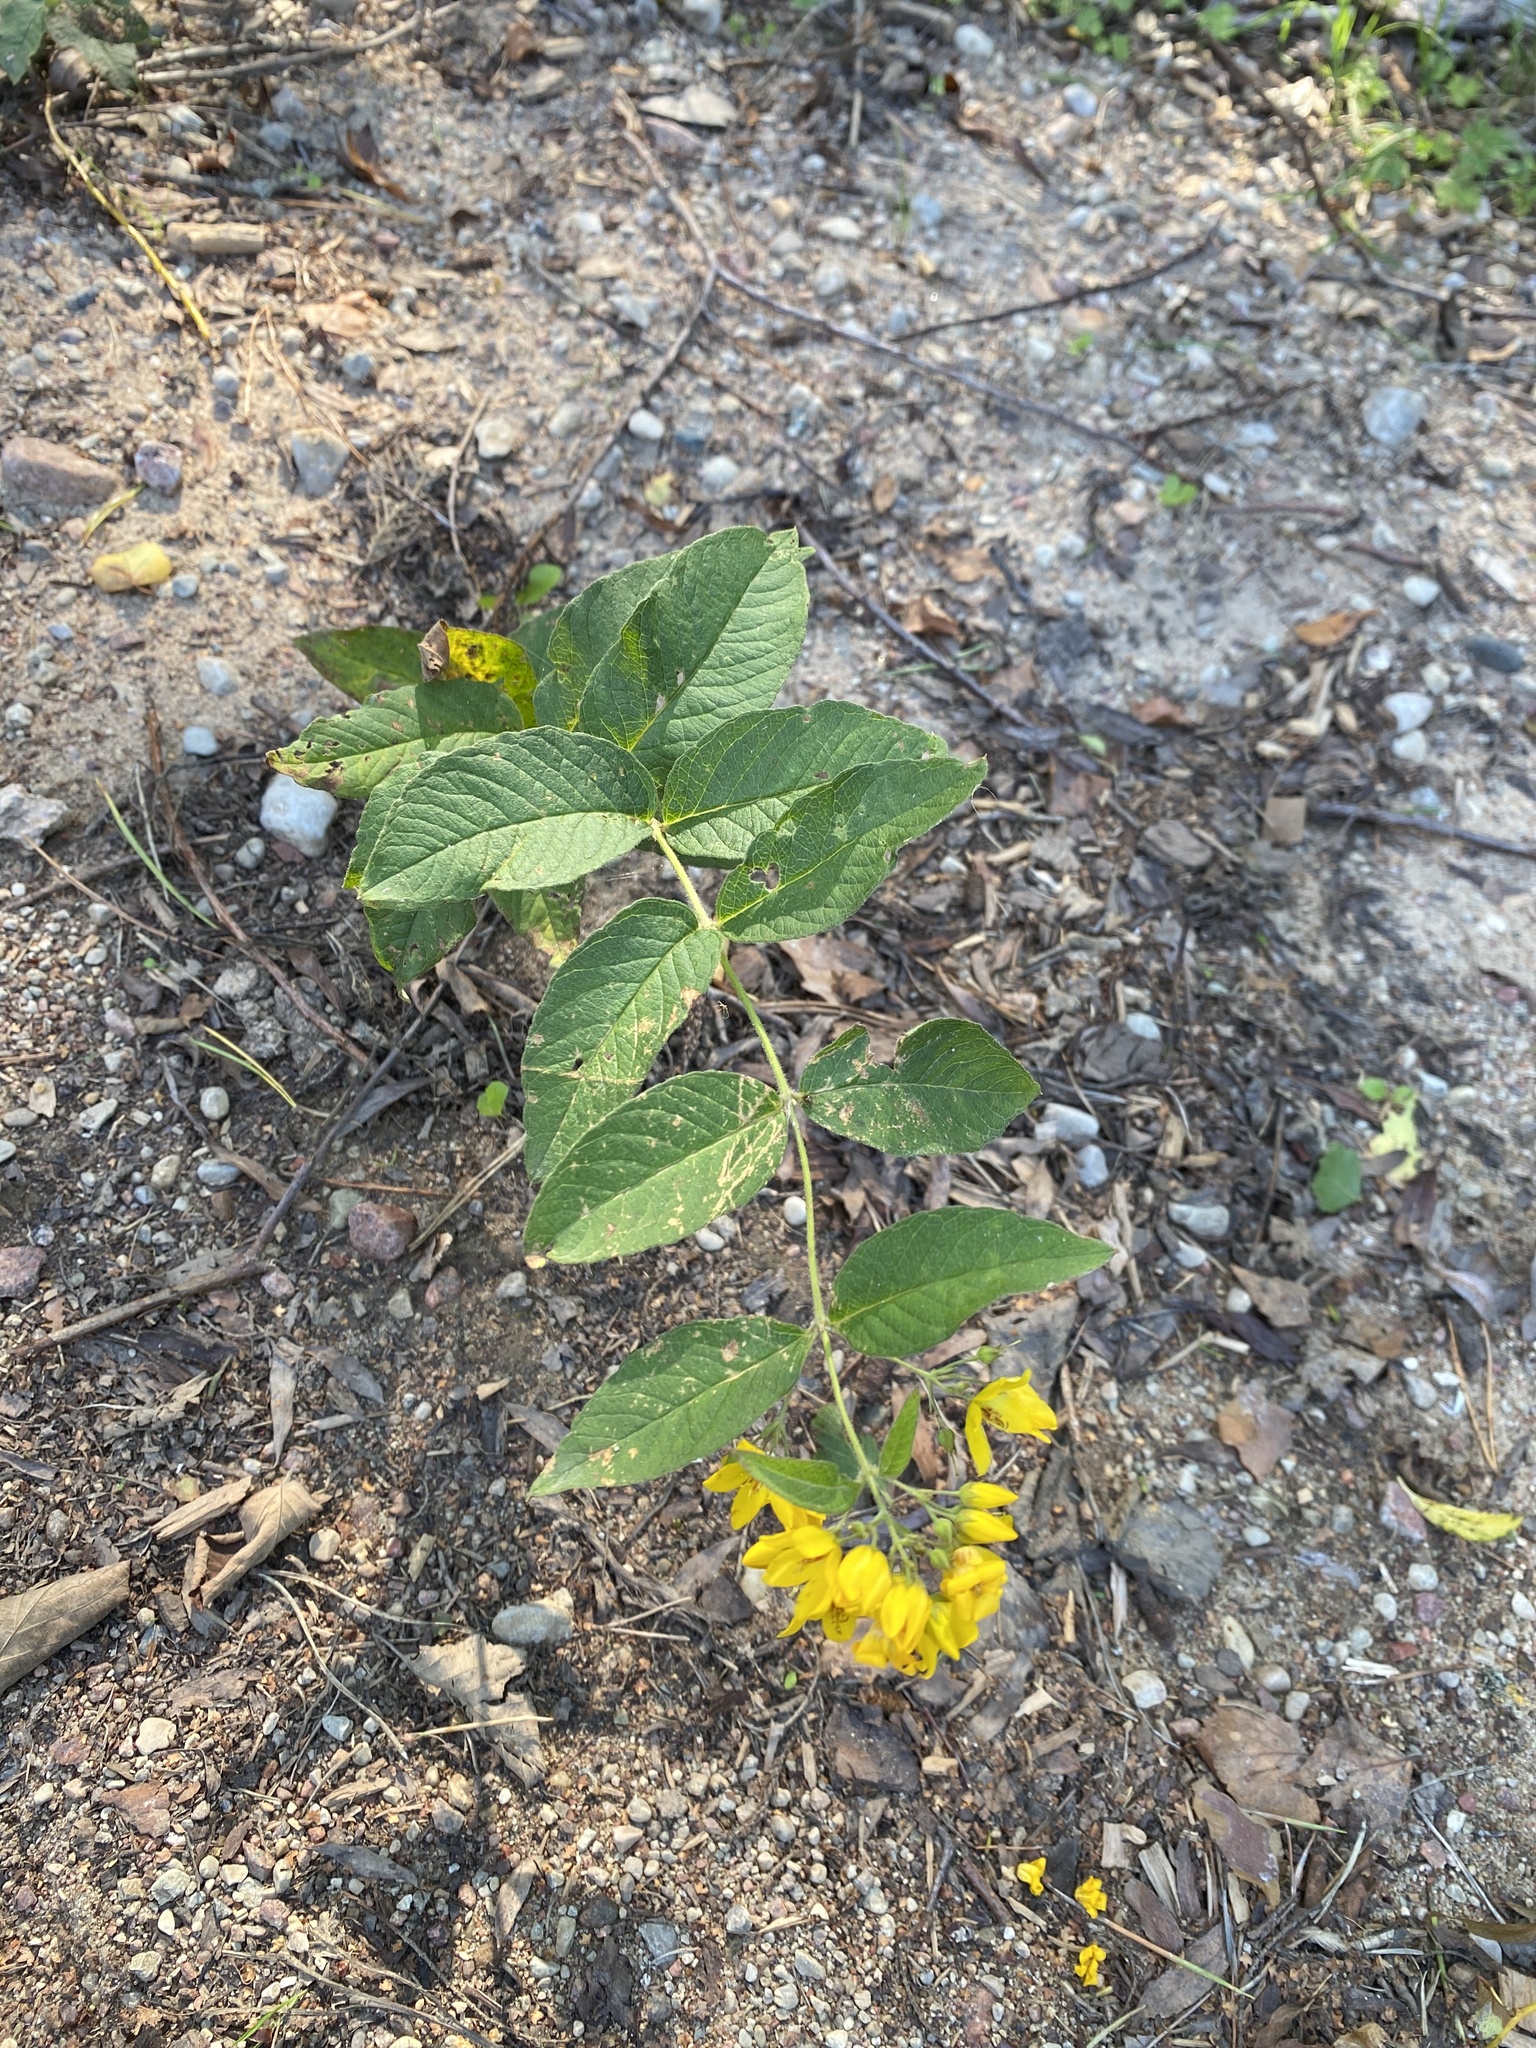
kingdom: Plantae
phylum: Tracheophyta
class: Magnoliopsida
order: Ericales
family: Primulaceae
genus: Lysimachia
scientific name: Lysimachia vulgaris
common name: Yellow loosestrife
